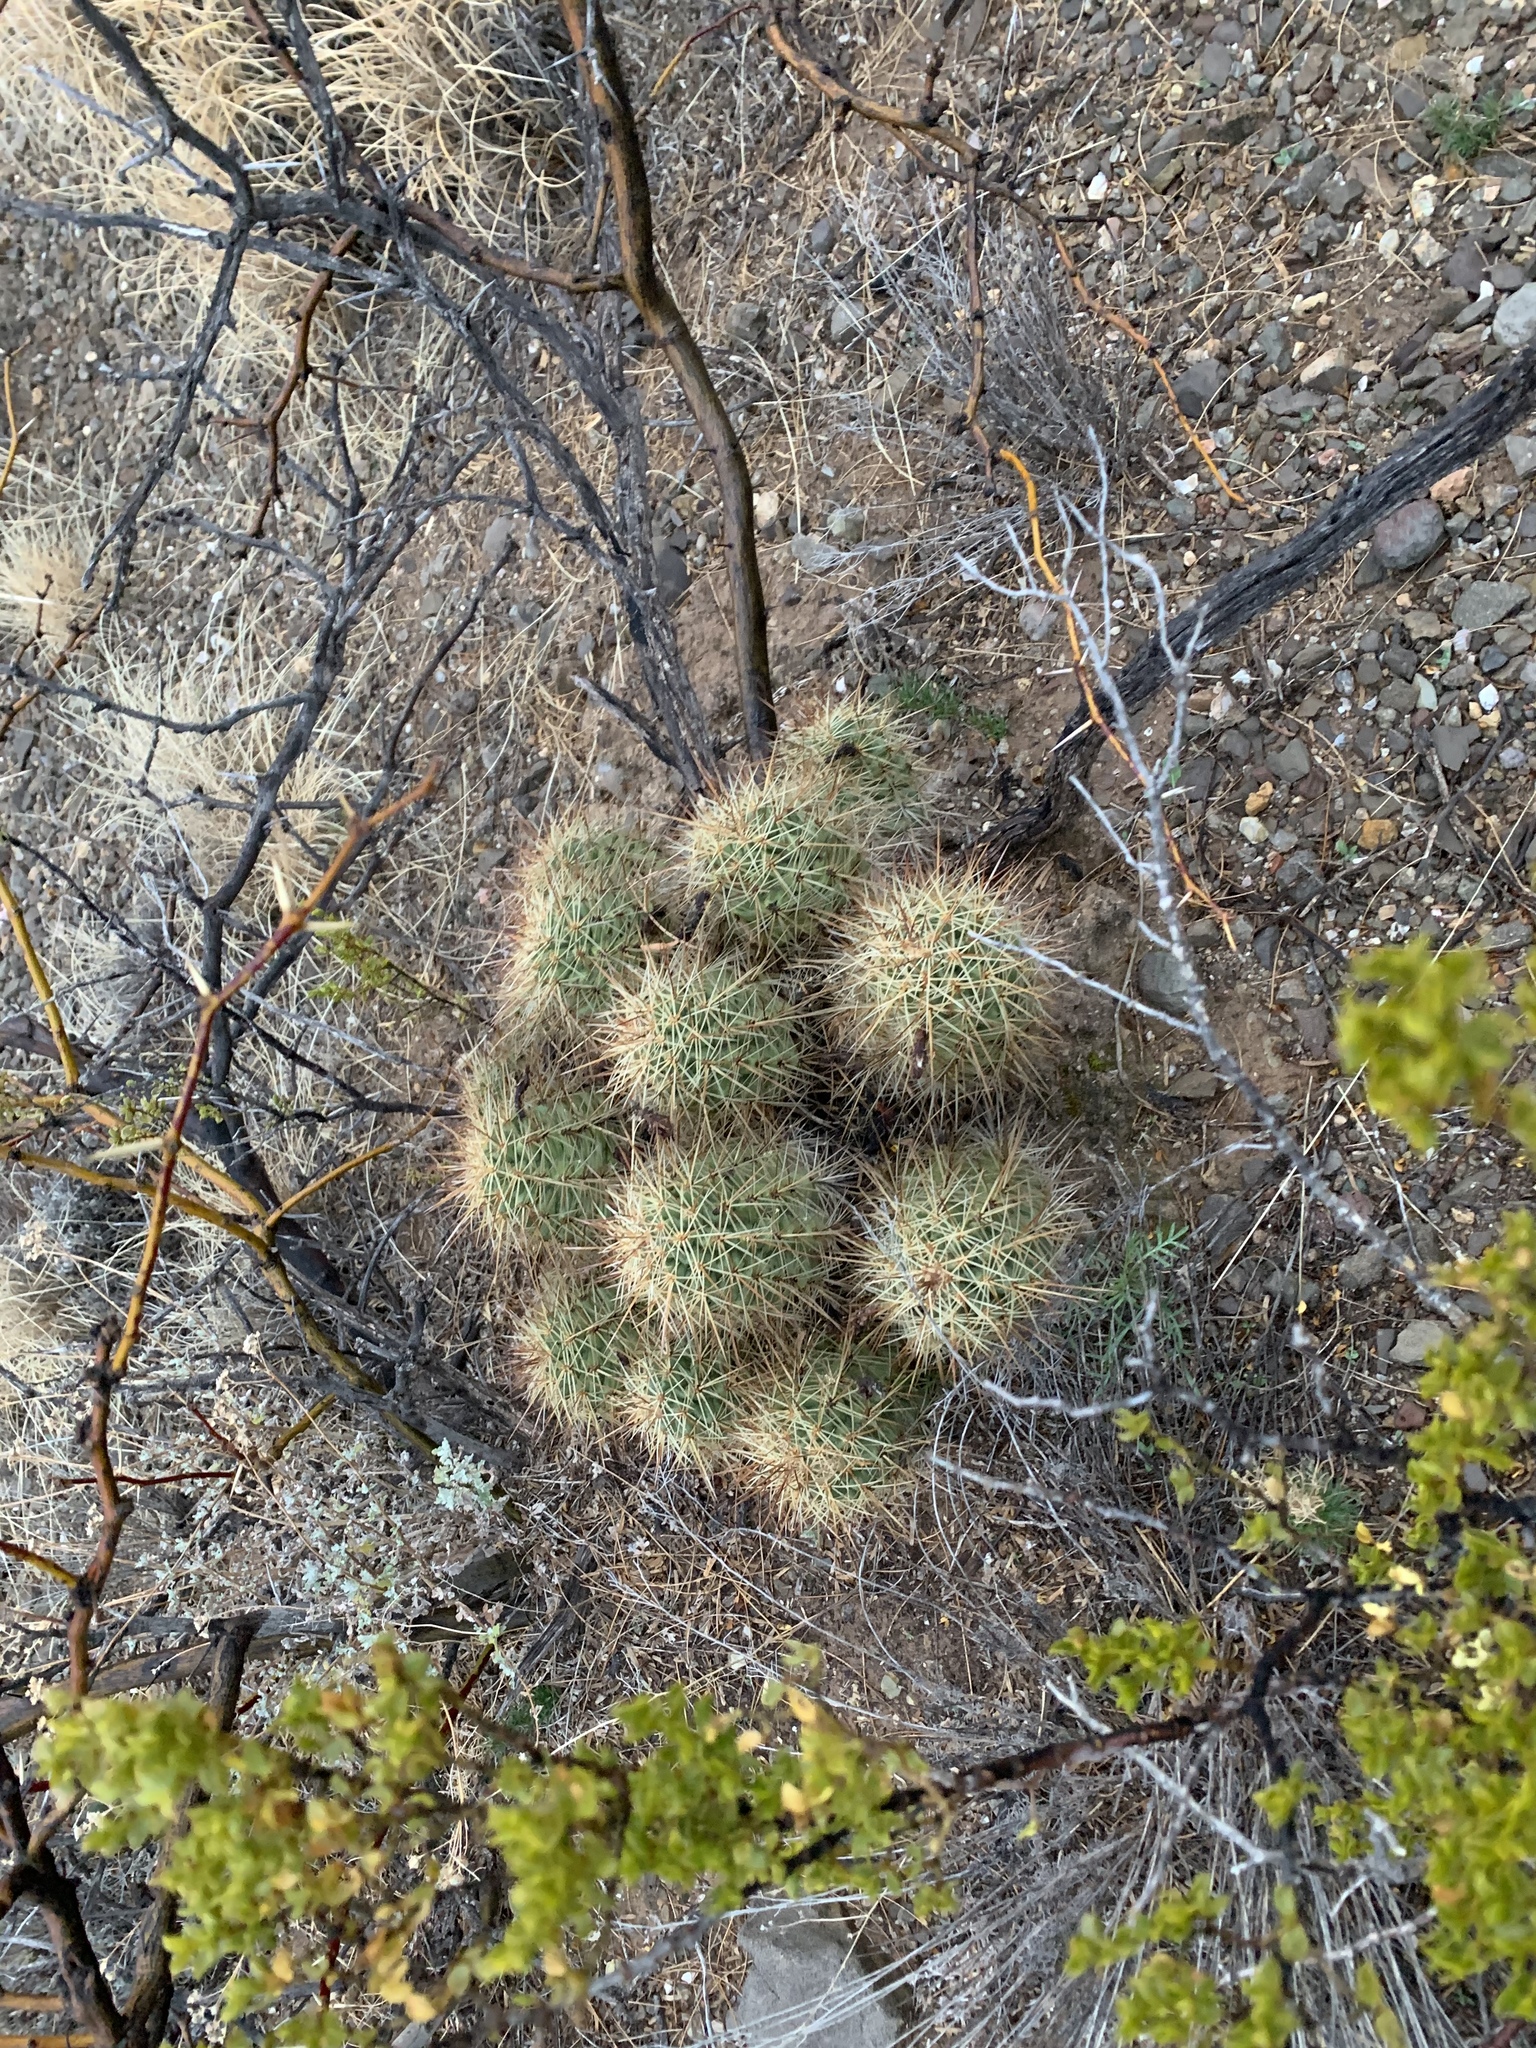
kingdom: Plantae
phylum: Tracheophyta
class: Magnoliopsida
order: Caryophyllales
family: Cactaceae
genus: Echinocereus
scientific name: Echinocereus coccineus
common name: Scarlet hedgehog cactus
